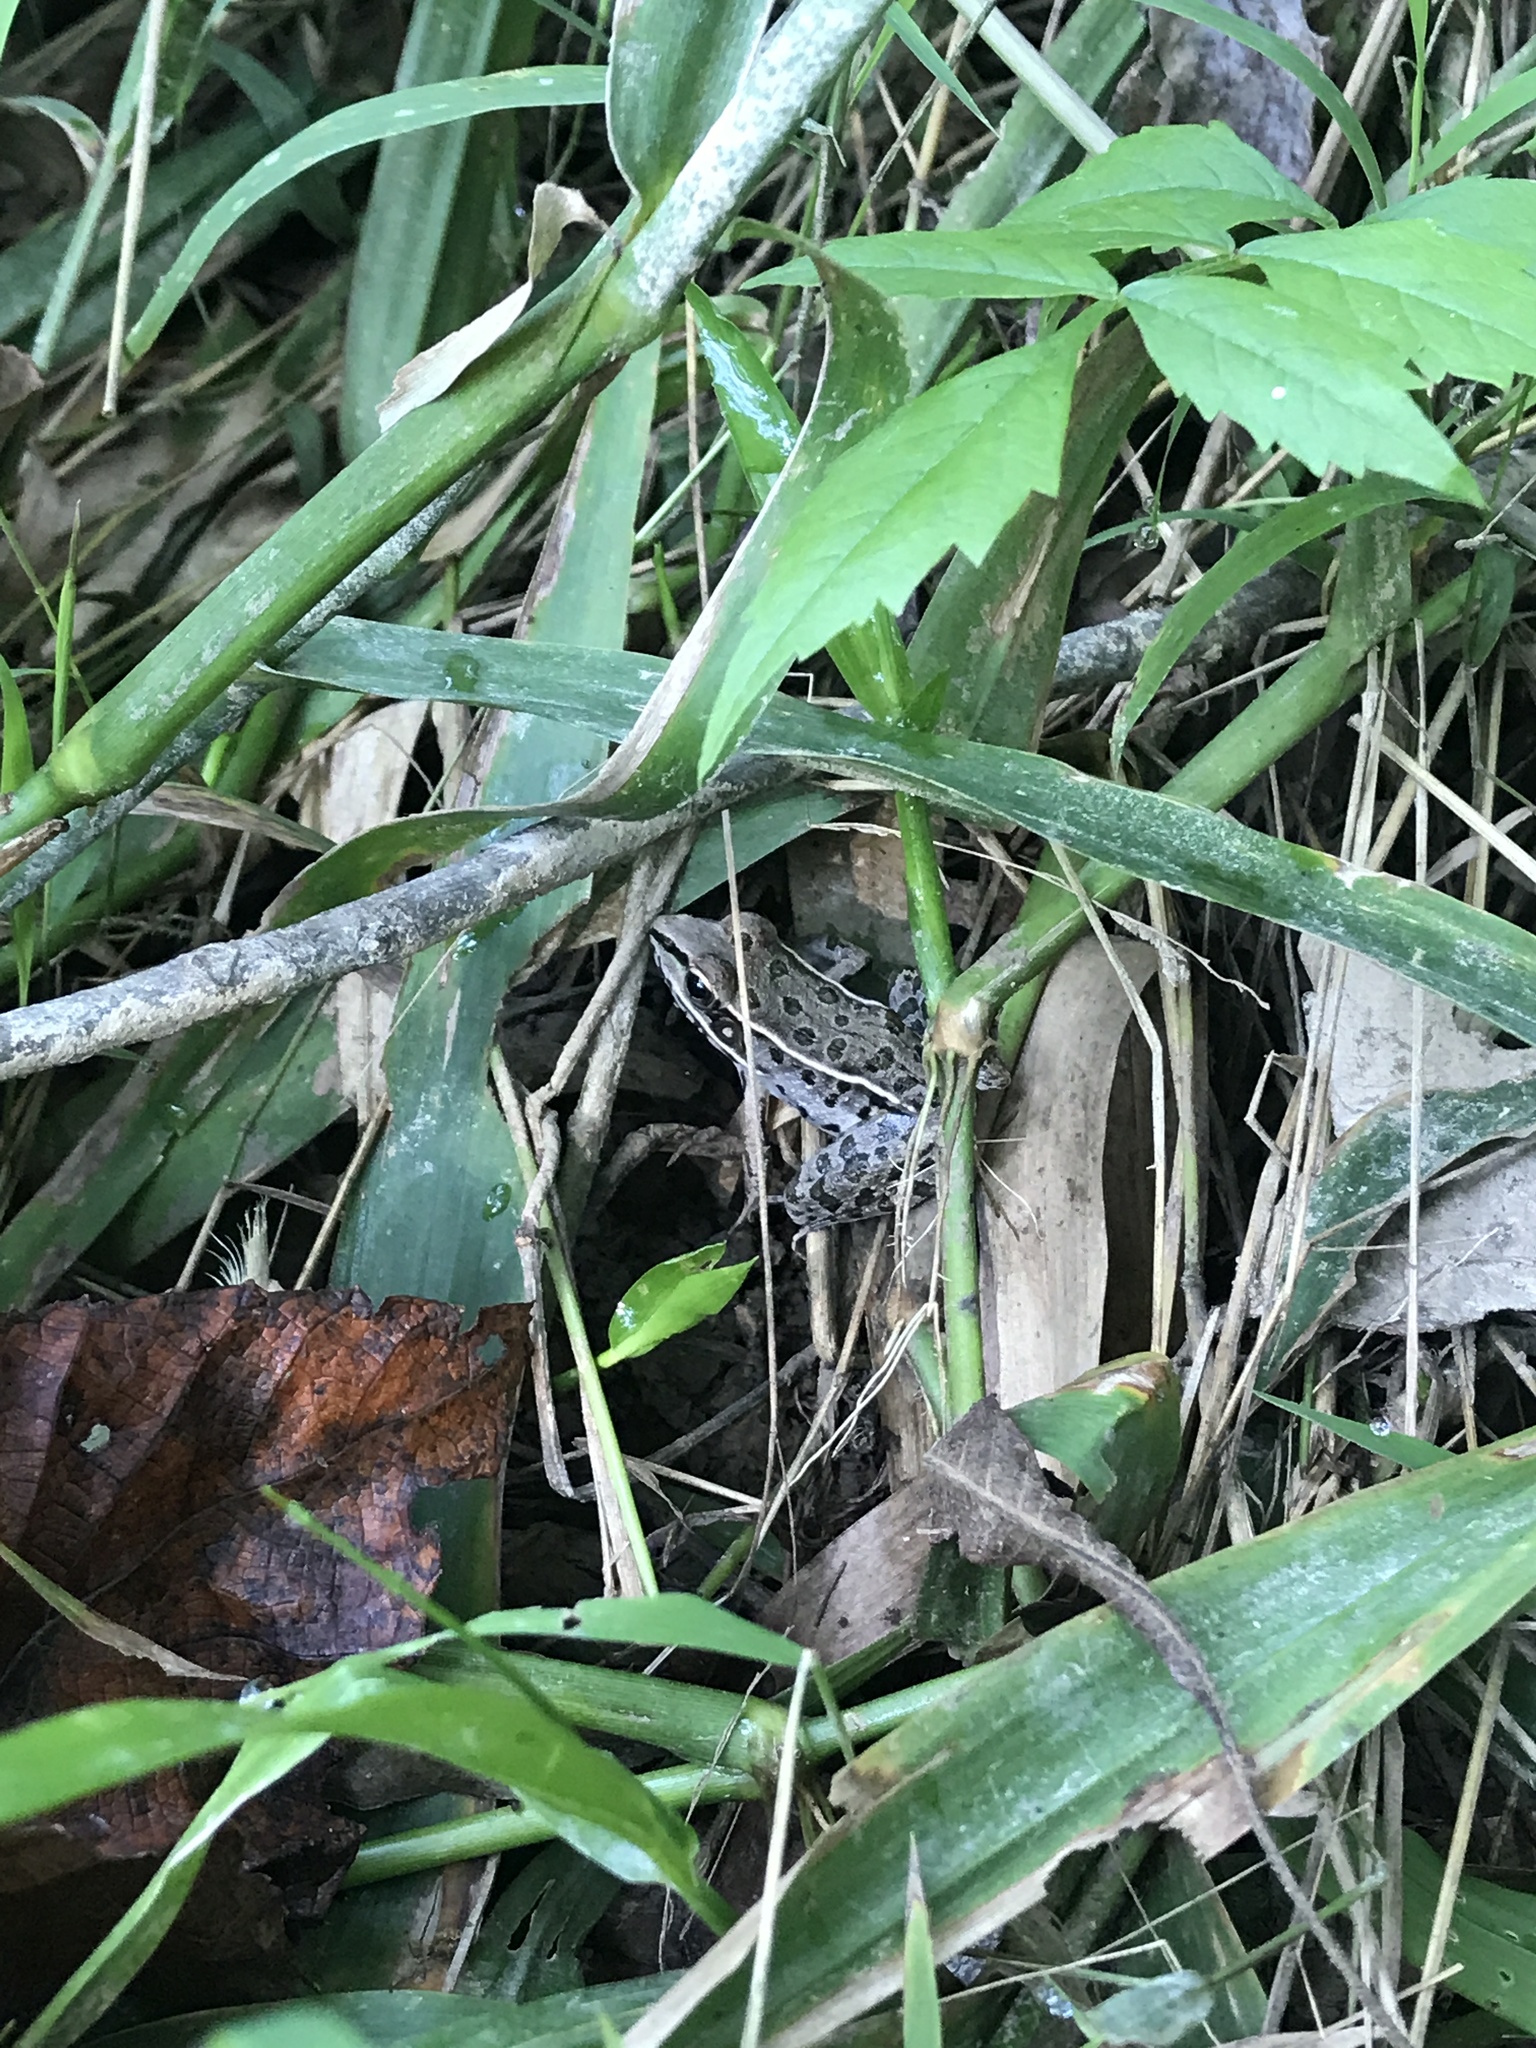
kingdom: Animalia
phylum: Chordata
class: Amphibia
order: Anura
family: Ranidae
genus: Lithobates
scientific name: Lithobates sphenocephalus
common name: Southern leopard frog
